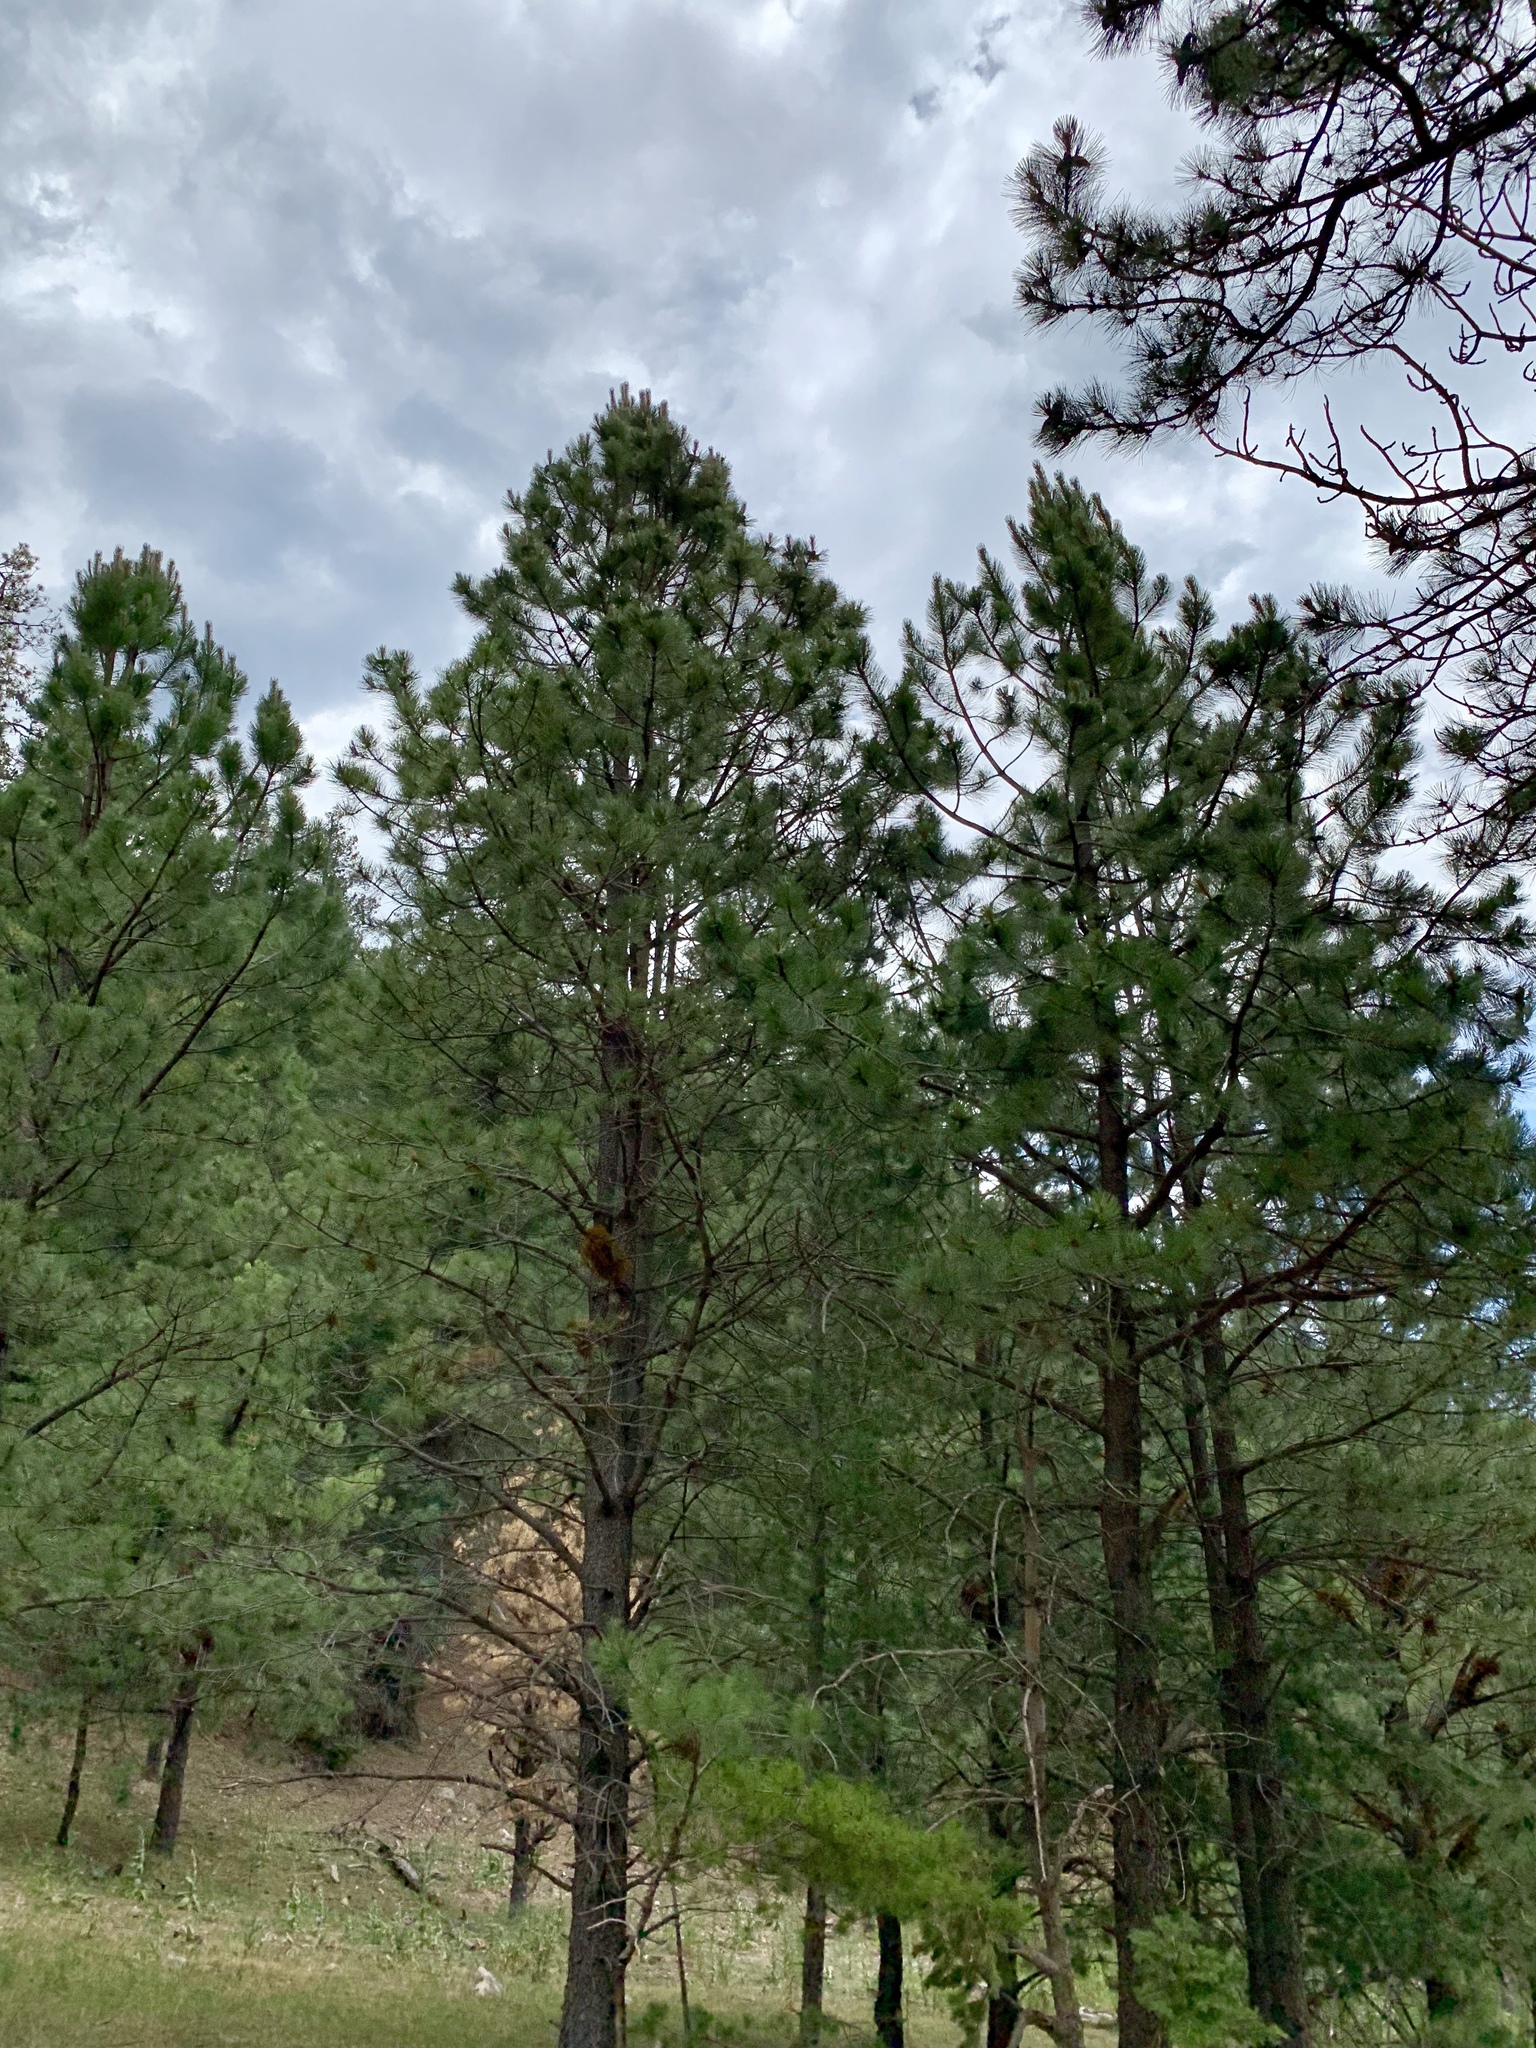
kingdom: Plantae
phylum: Tracheophyta
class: Pinopsida
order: Pinales
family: Pinaceae
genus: Pinus
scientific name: Pinus ponderosa
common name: Western yellow-pine
